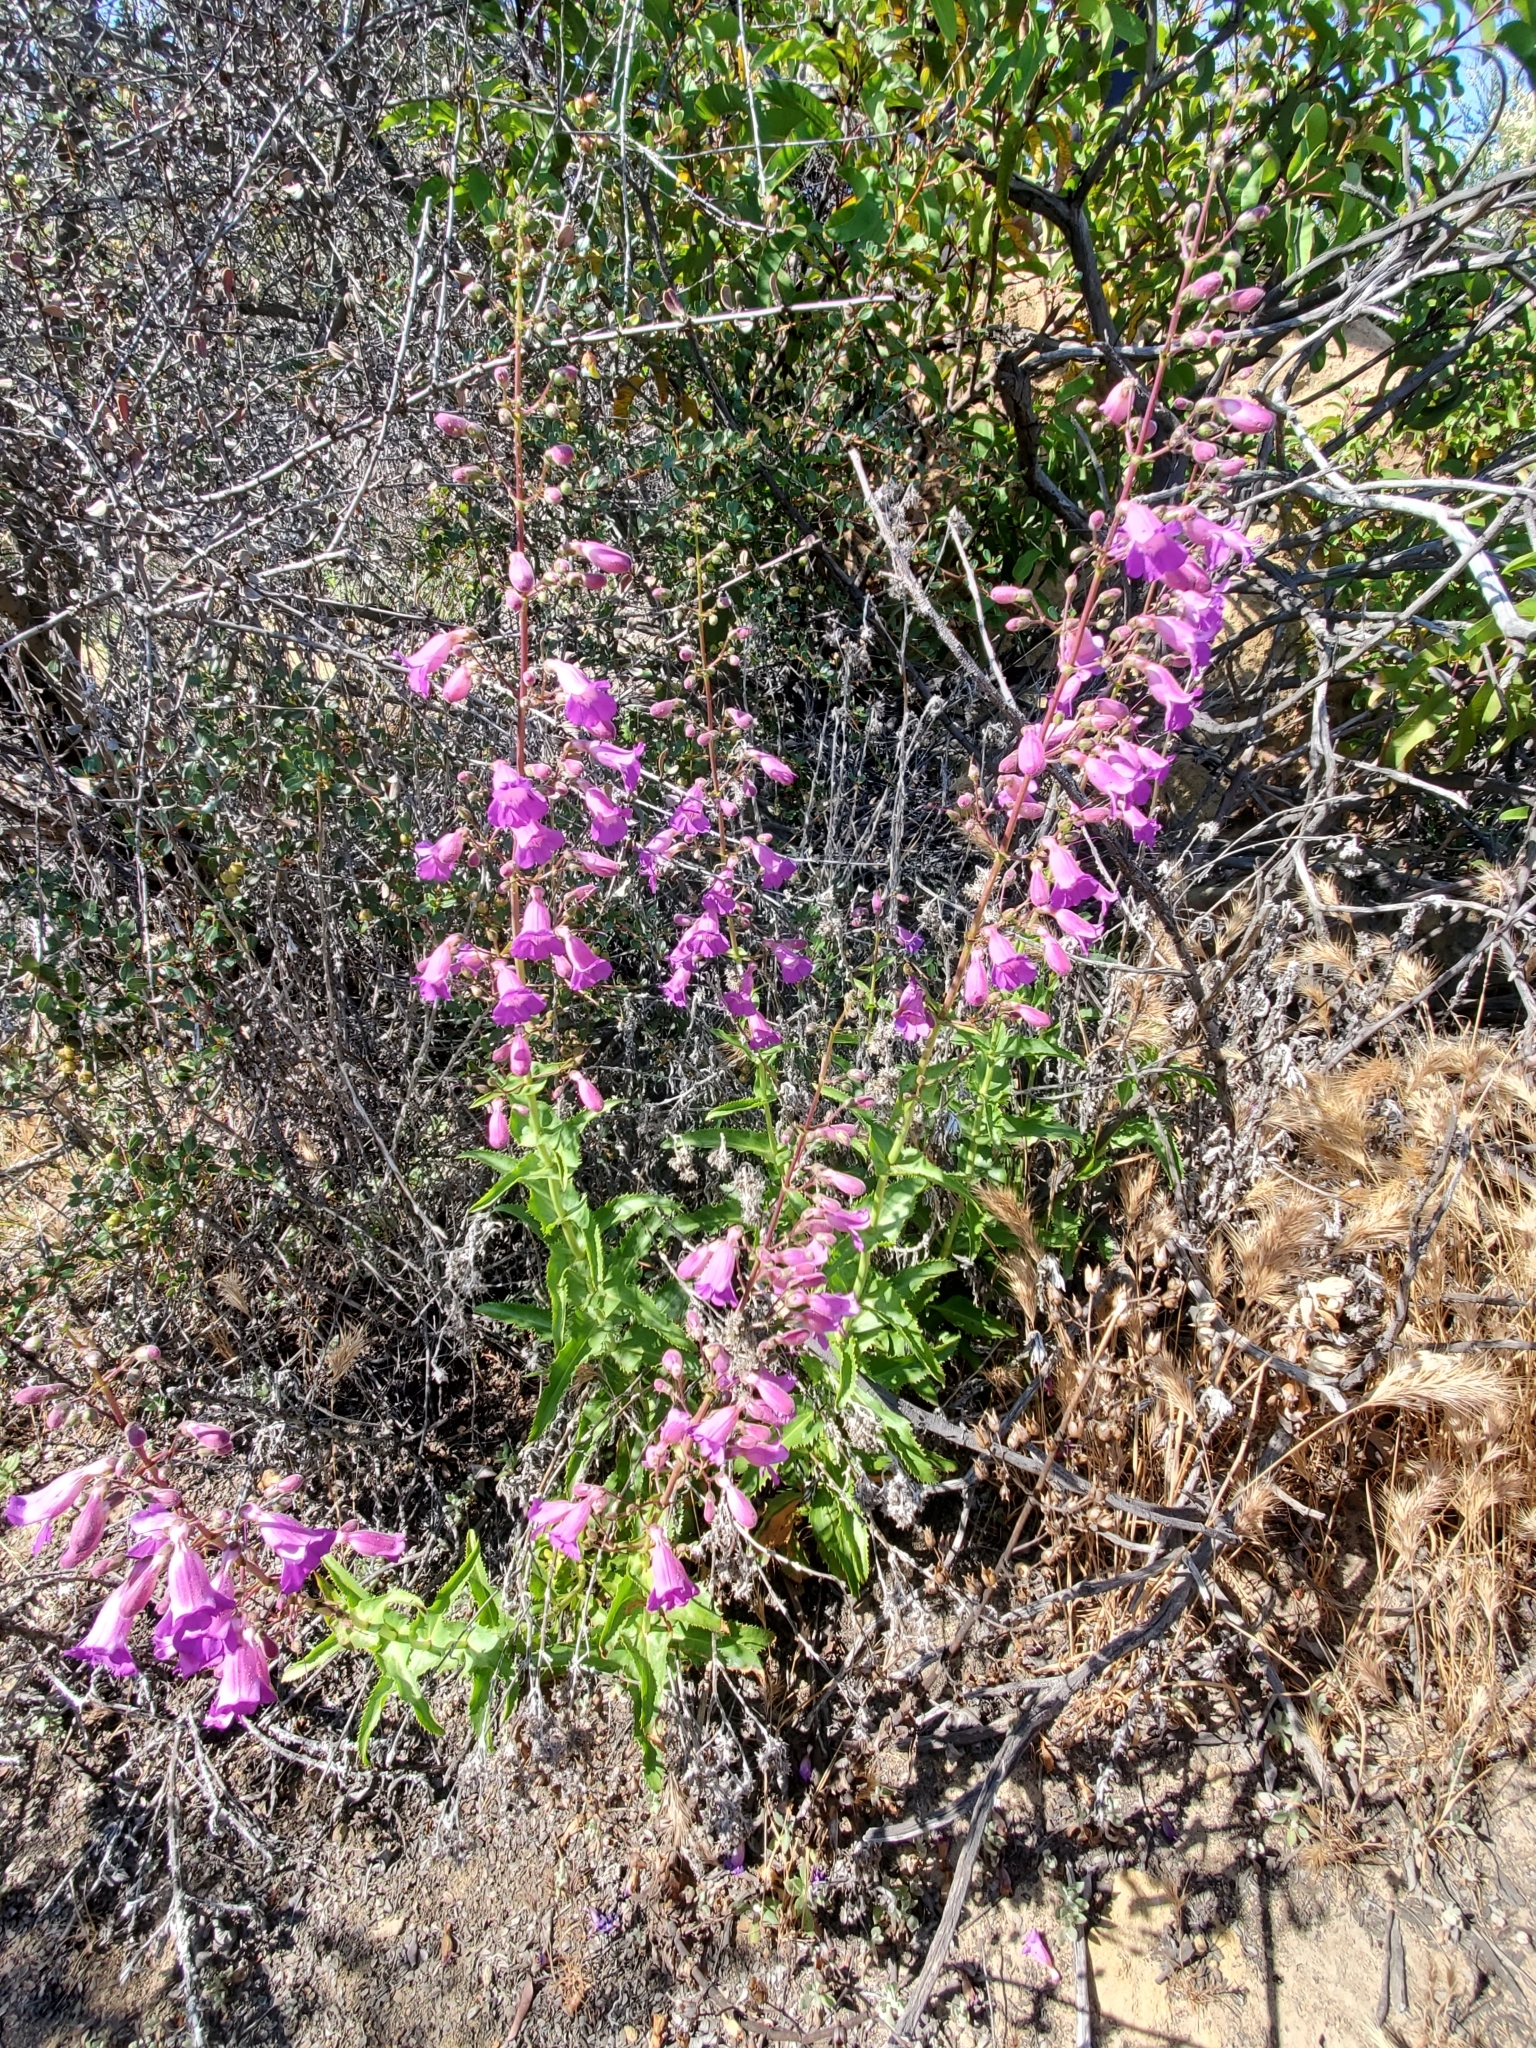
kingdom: Plantae
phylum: Tracheophyta
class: Magnoliopsida
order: Lamiales
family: Plantaginaceae
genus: Penstemon
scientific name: Penstemon spectabilis
